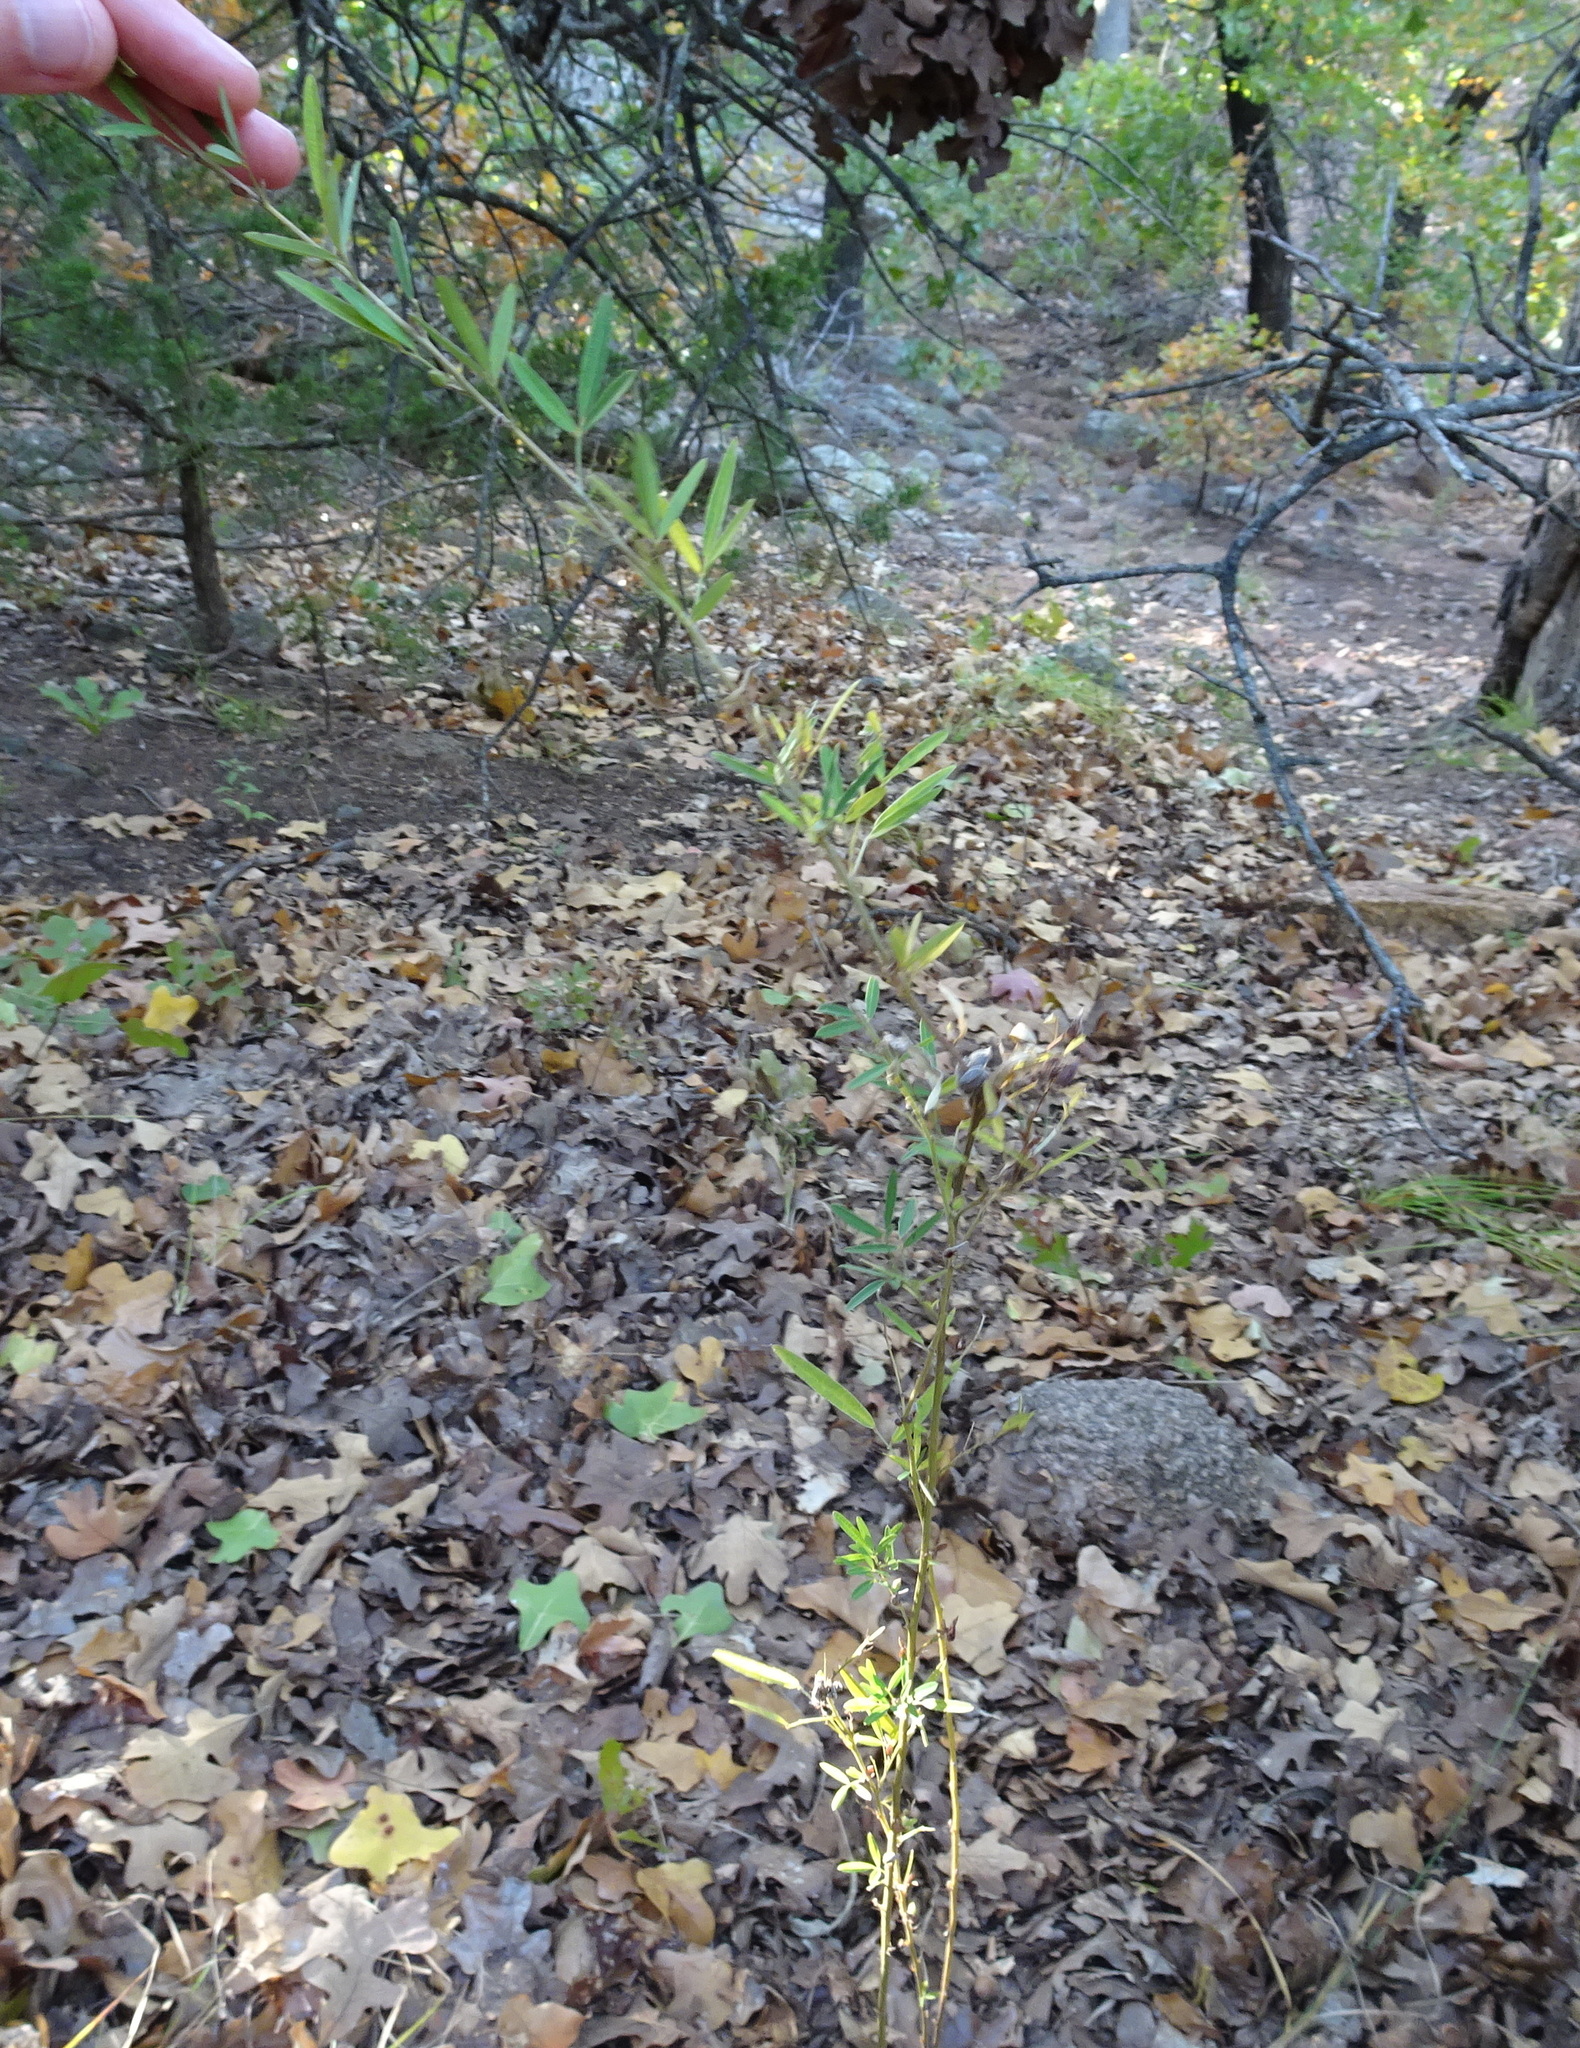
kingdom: Plantae
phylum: Tracheophyta
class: Magnoliopsida
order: Fabales
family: Fabaceae
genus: Lespedeza
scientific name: Lespedeza virginica
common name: Slender bush-clover
